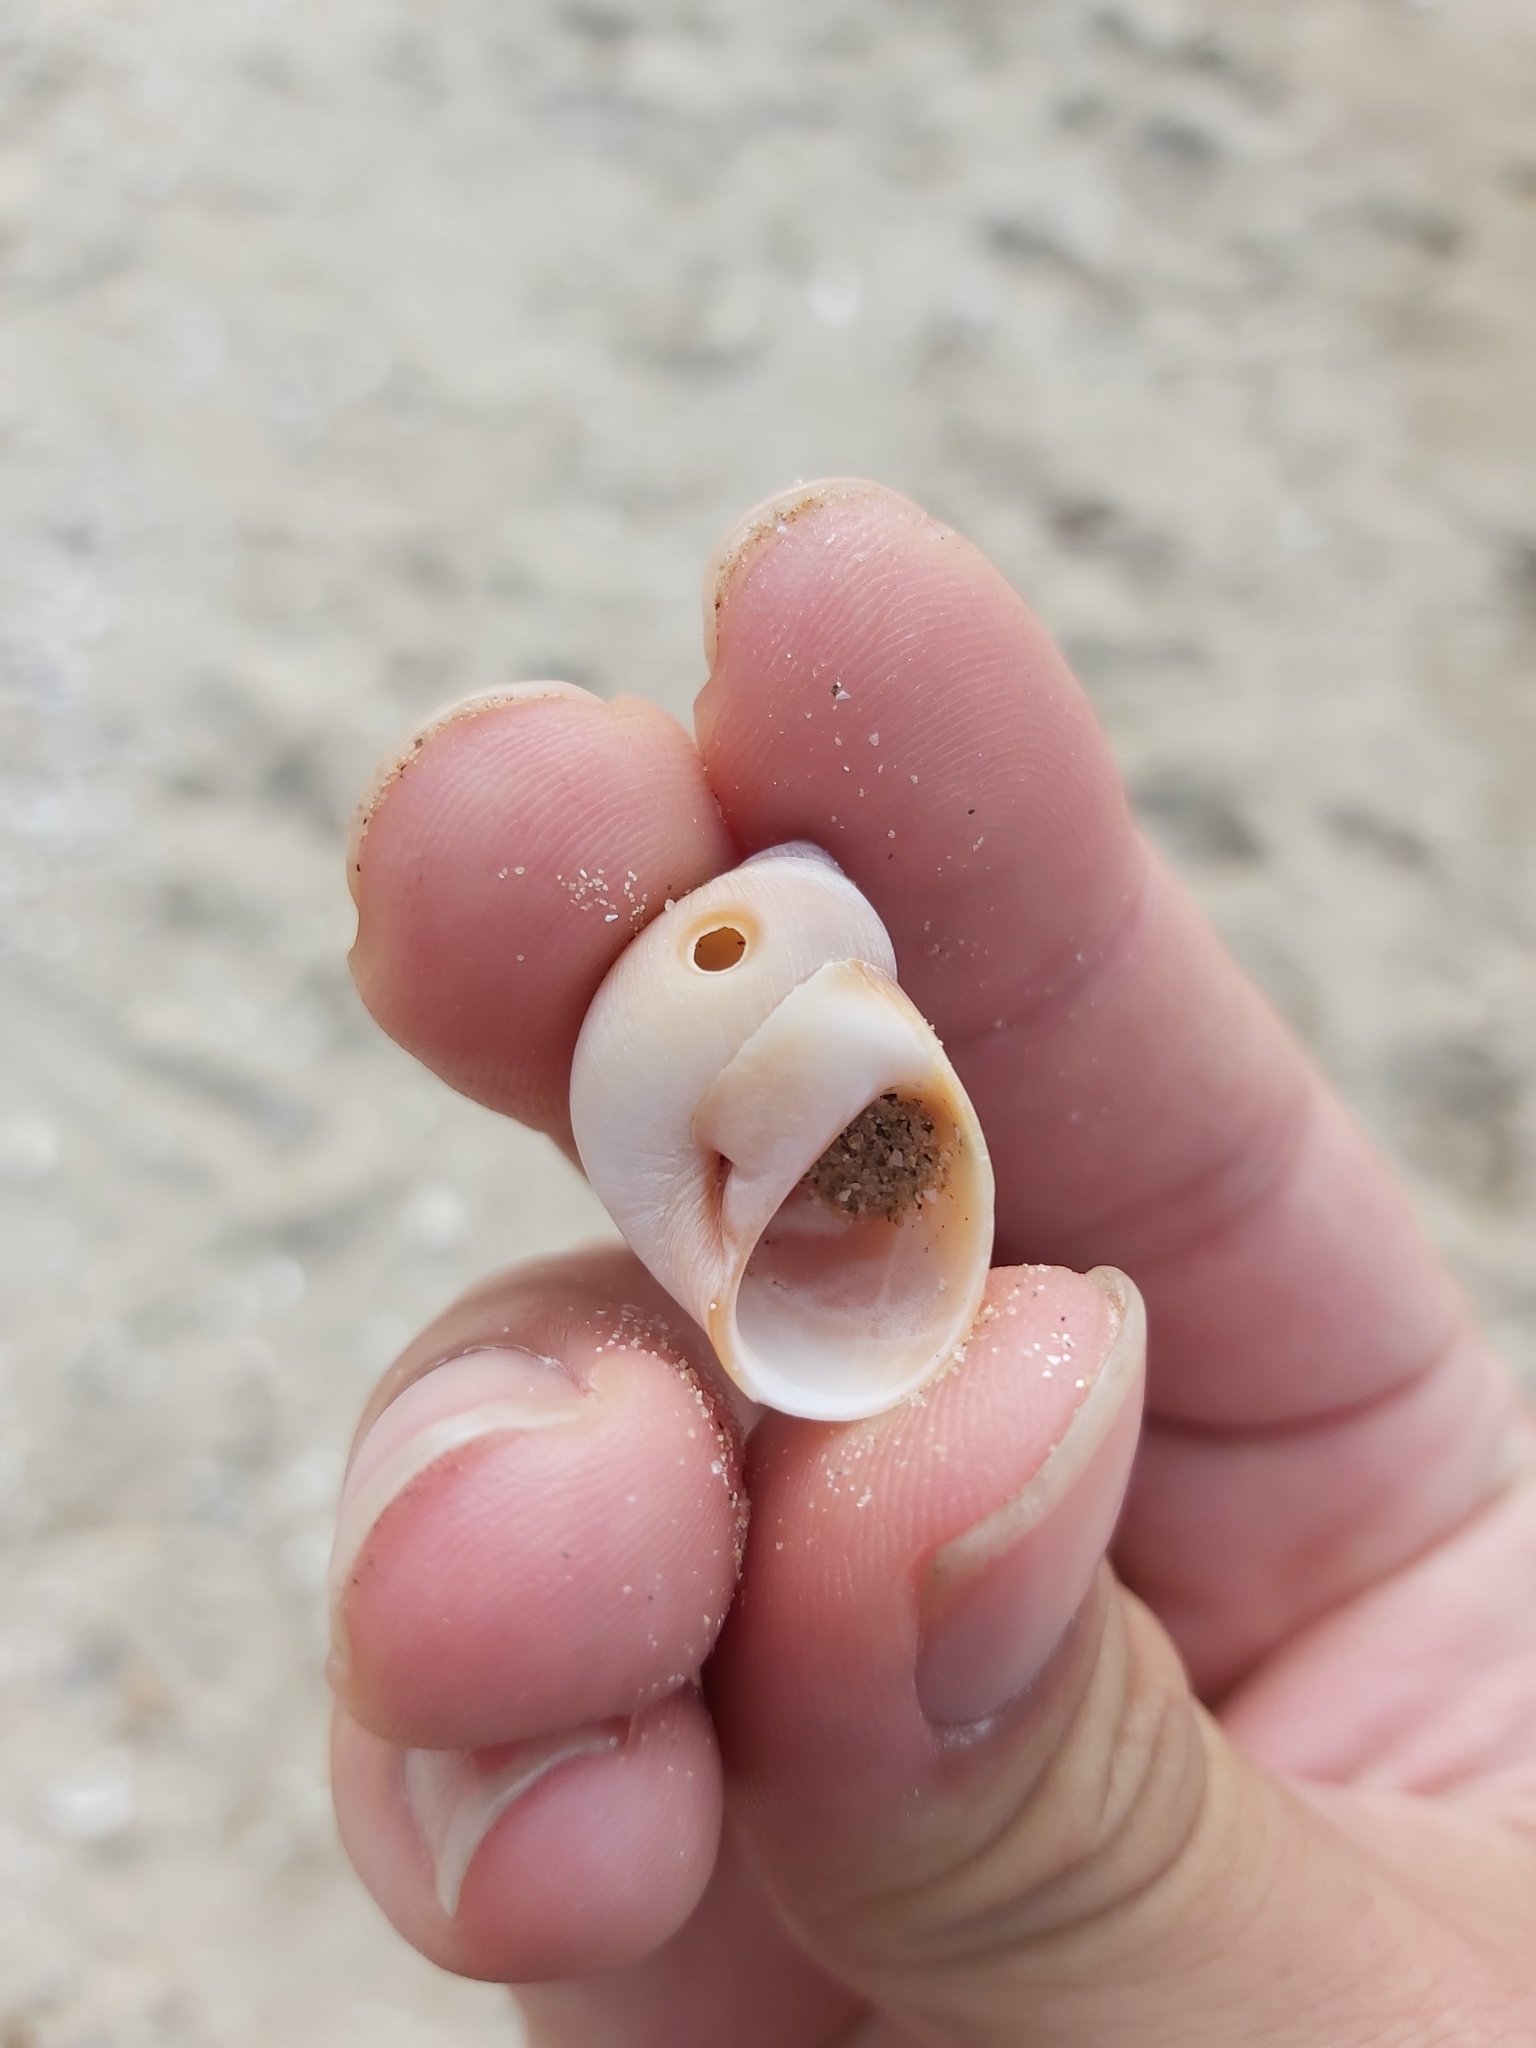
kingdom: Animalia
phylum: Mollusca
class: Gastropoda
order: Littorinimorpha
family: Naticidae
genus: Conuber
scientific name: Conuber conicum
